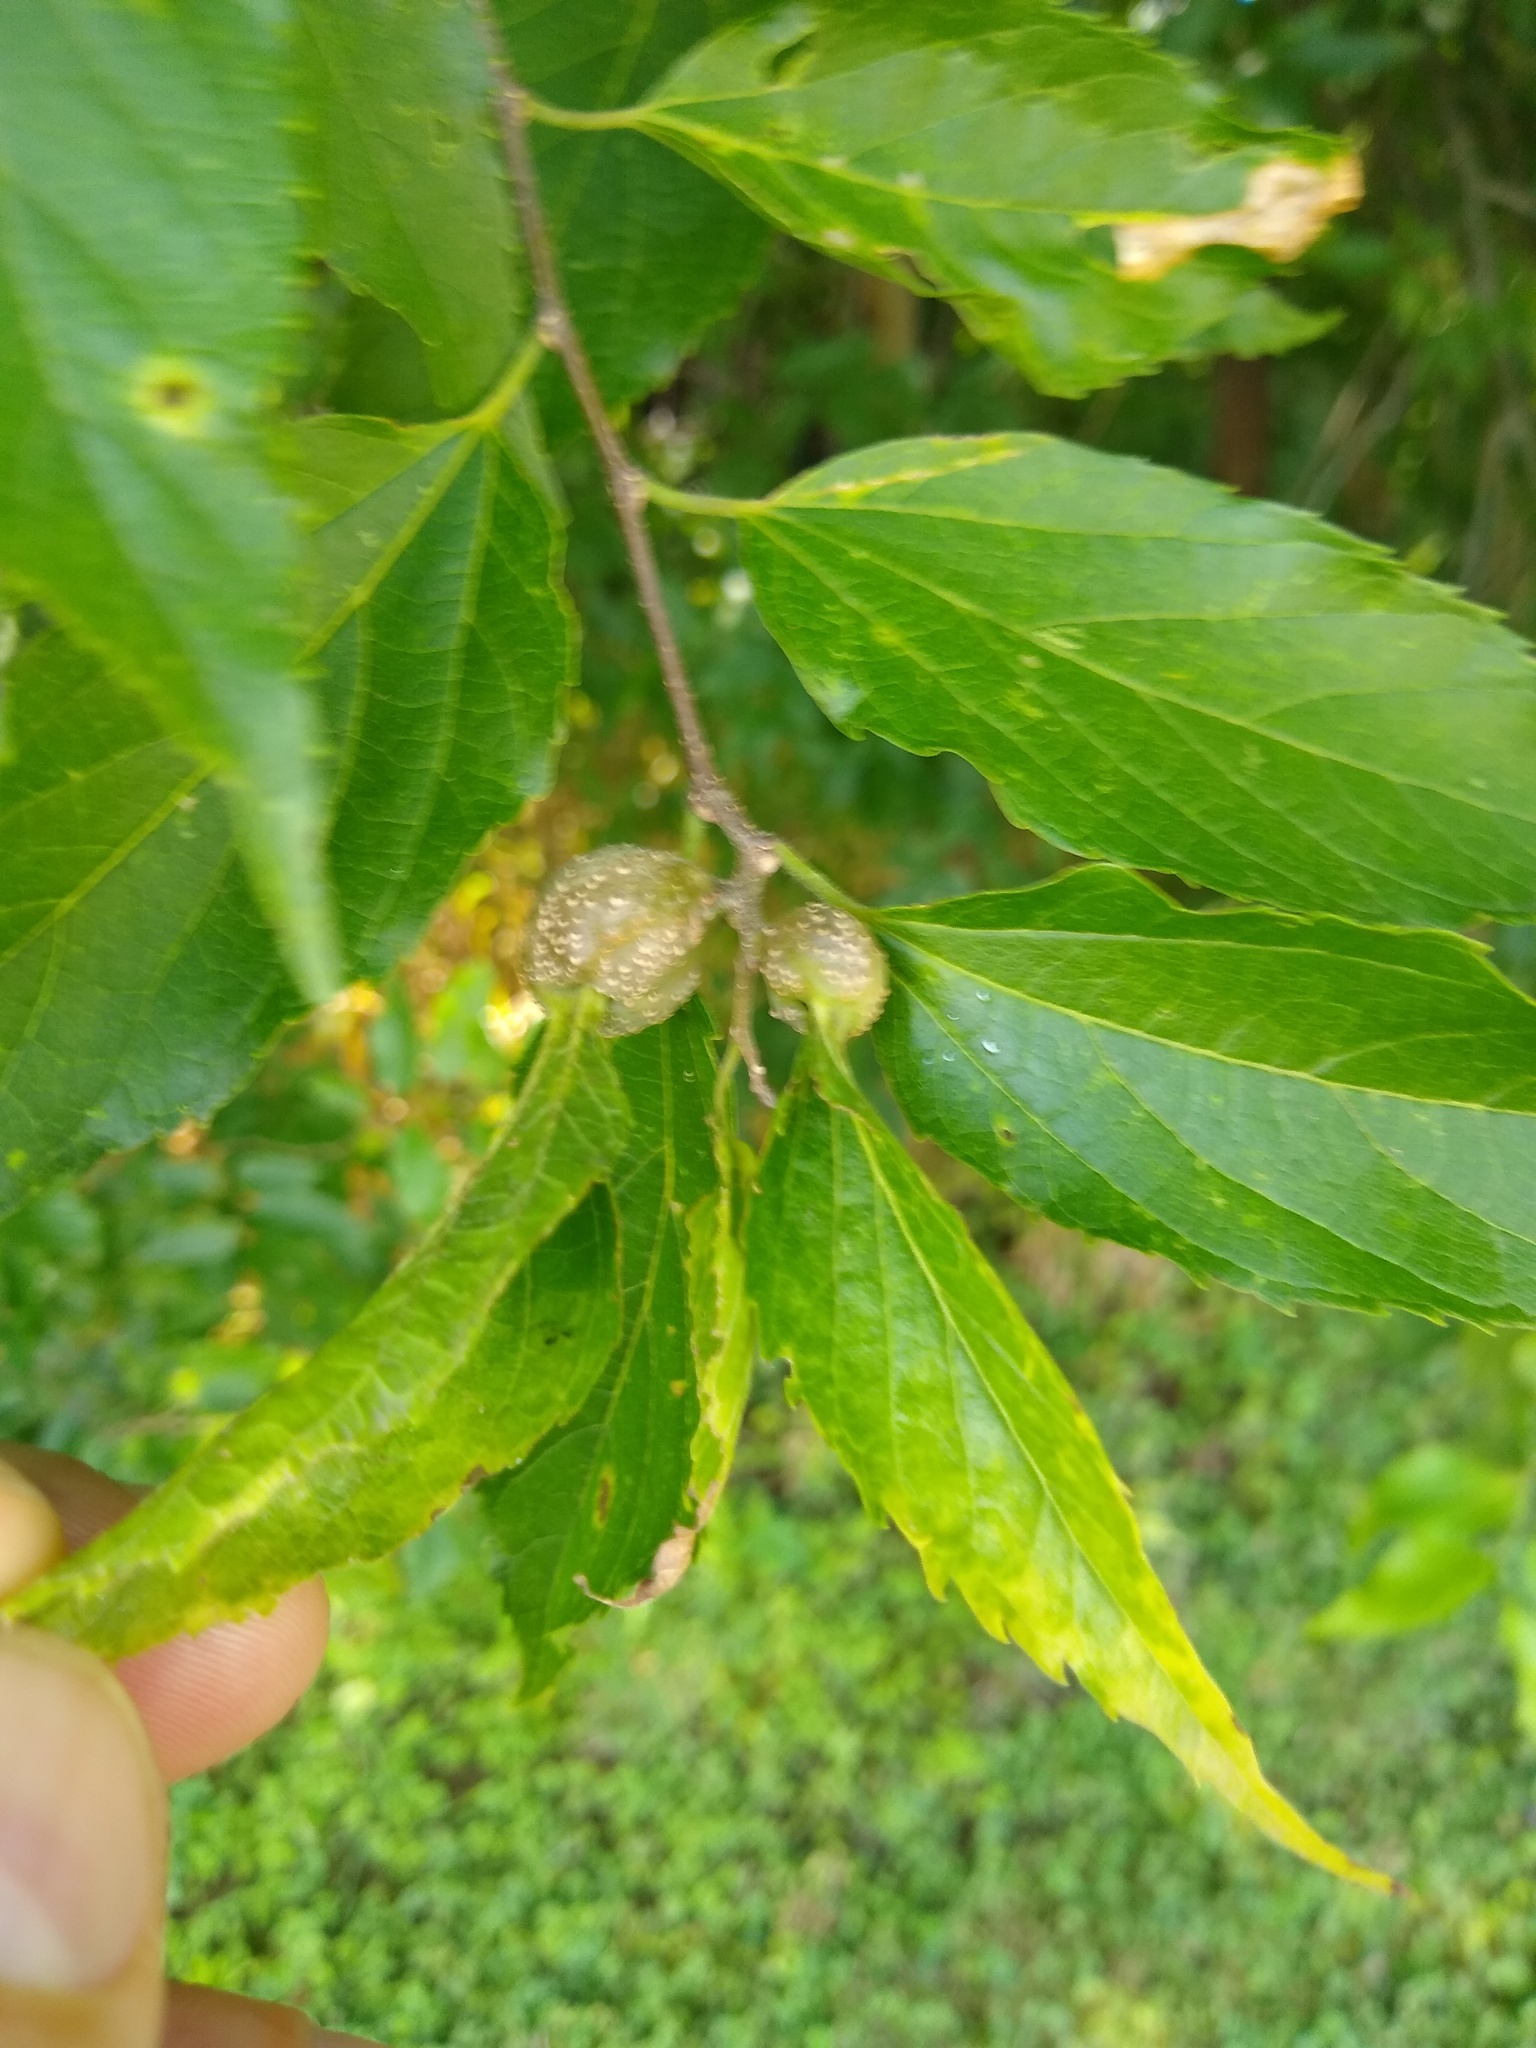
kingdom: Animalia
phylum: Arthropoda
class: Insecta
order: Hemiptera
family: Aphalaridae
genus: Pachypsylla
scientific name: Pachypsylla venusta
